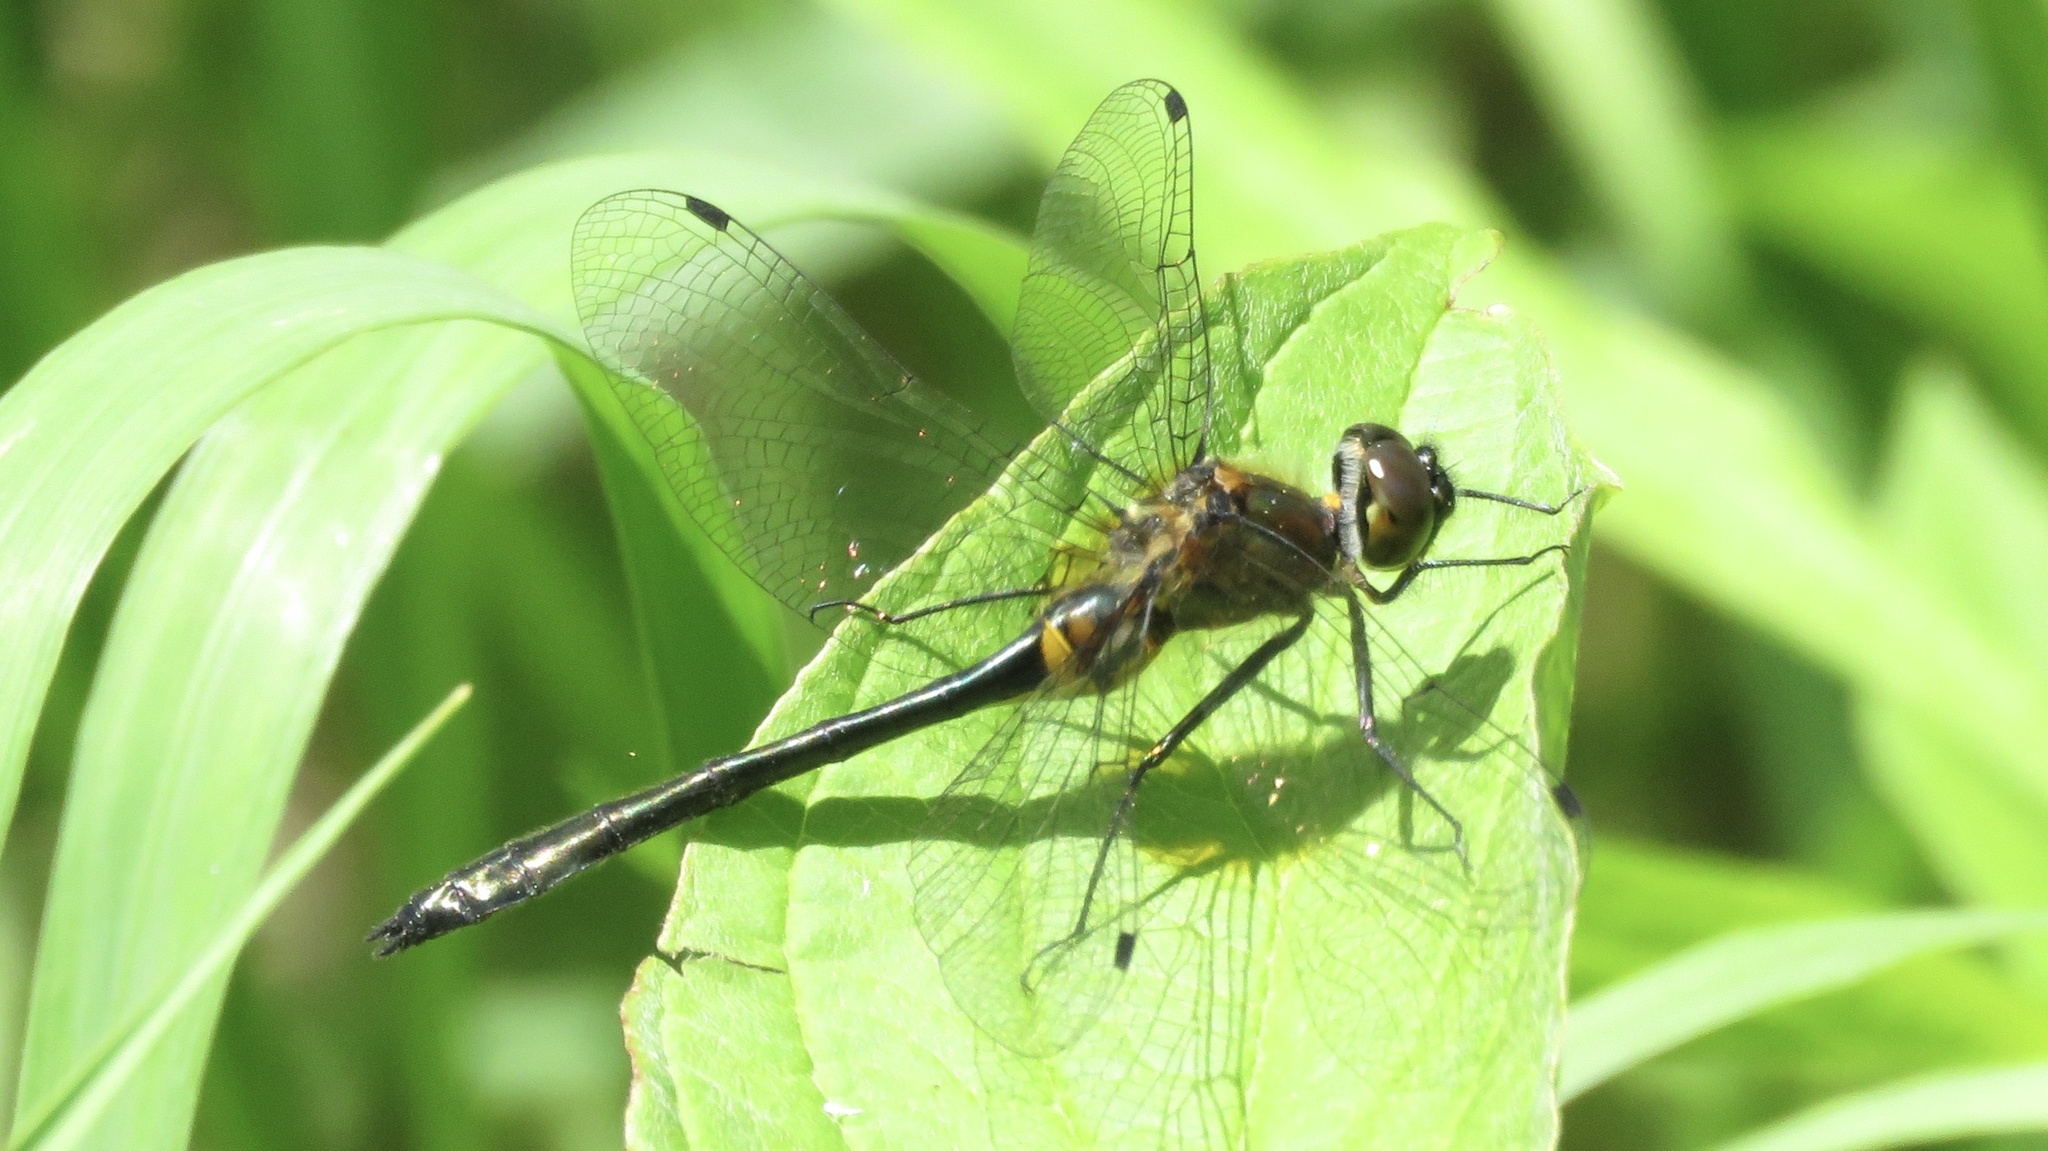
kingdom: Animalia
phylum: Arthropoda
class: Insecta
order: Odonata
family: Corduliidae
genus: Dorocordulia
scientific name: Dorocordulia libera
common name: Racket-tailed emerald
